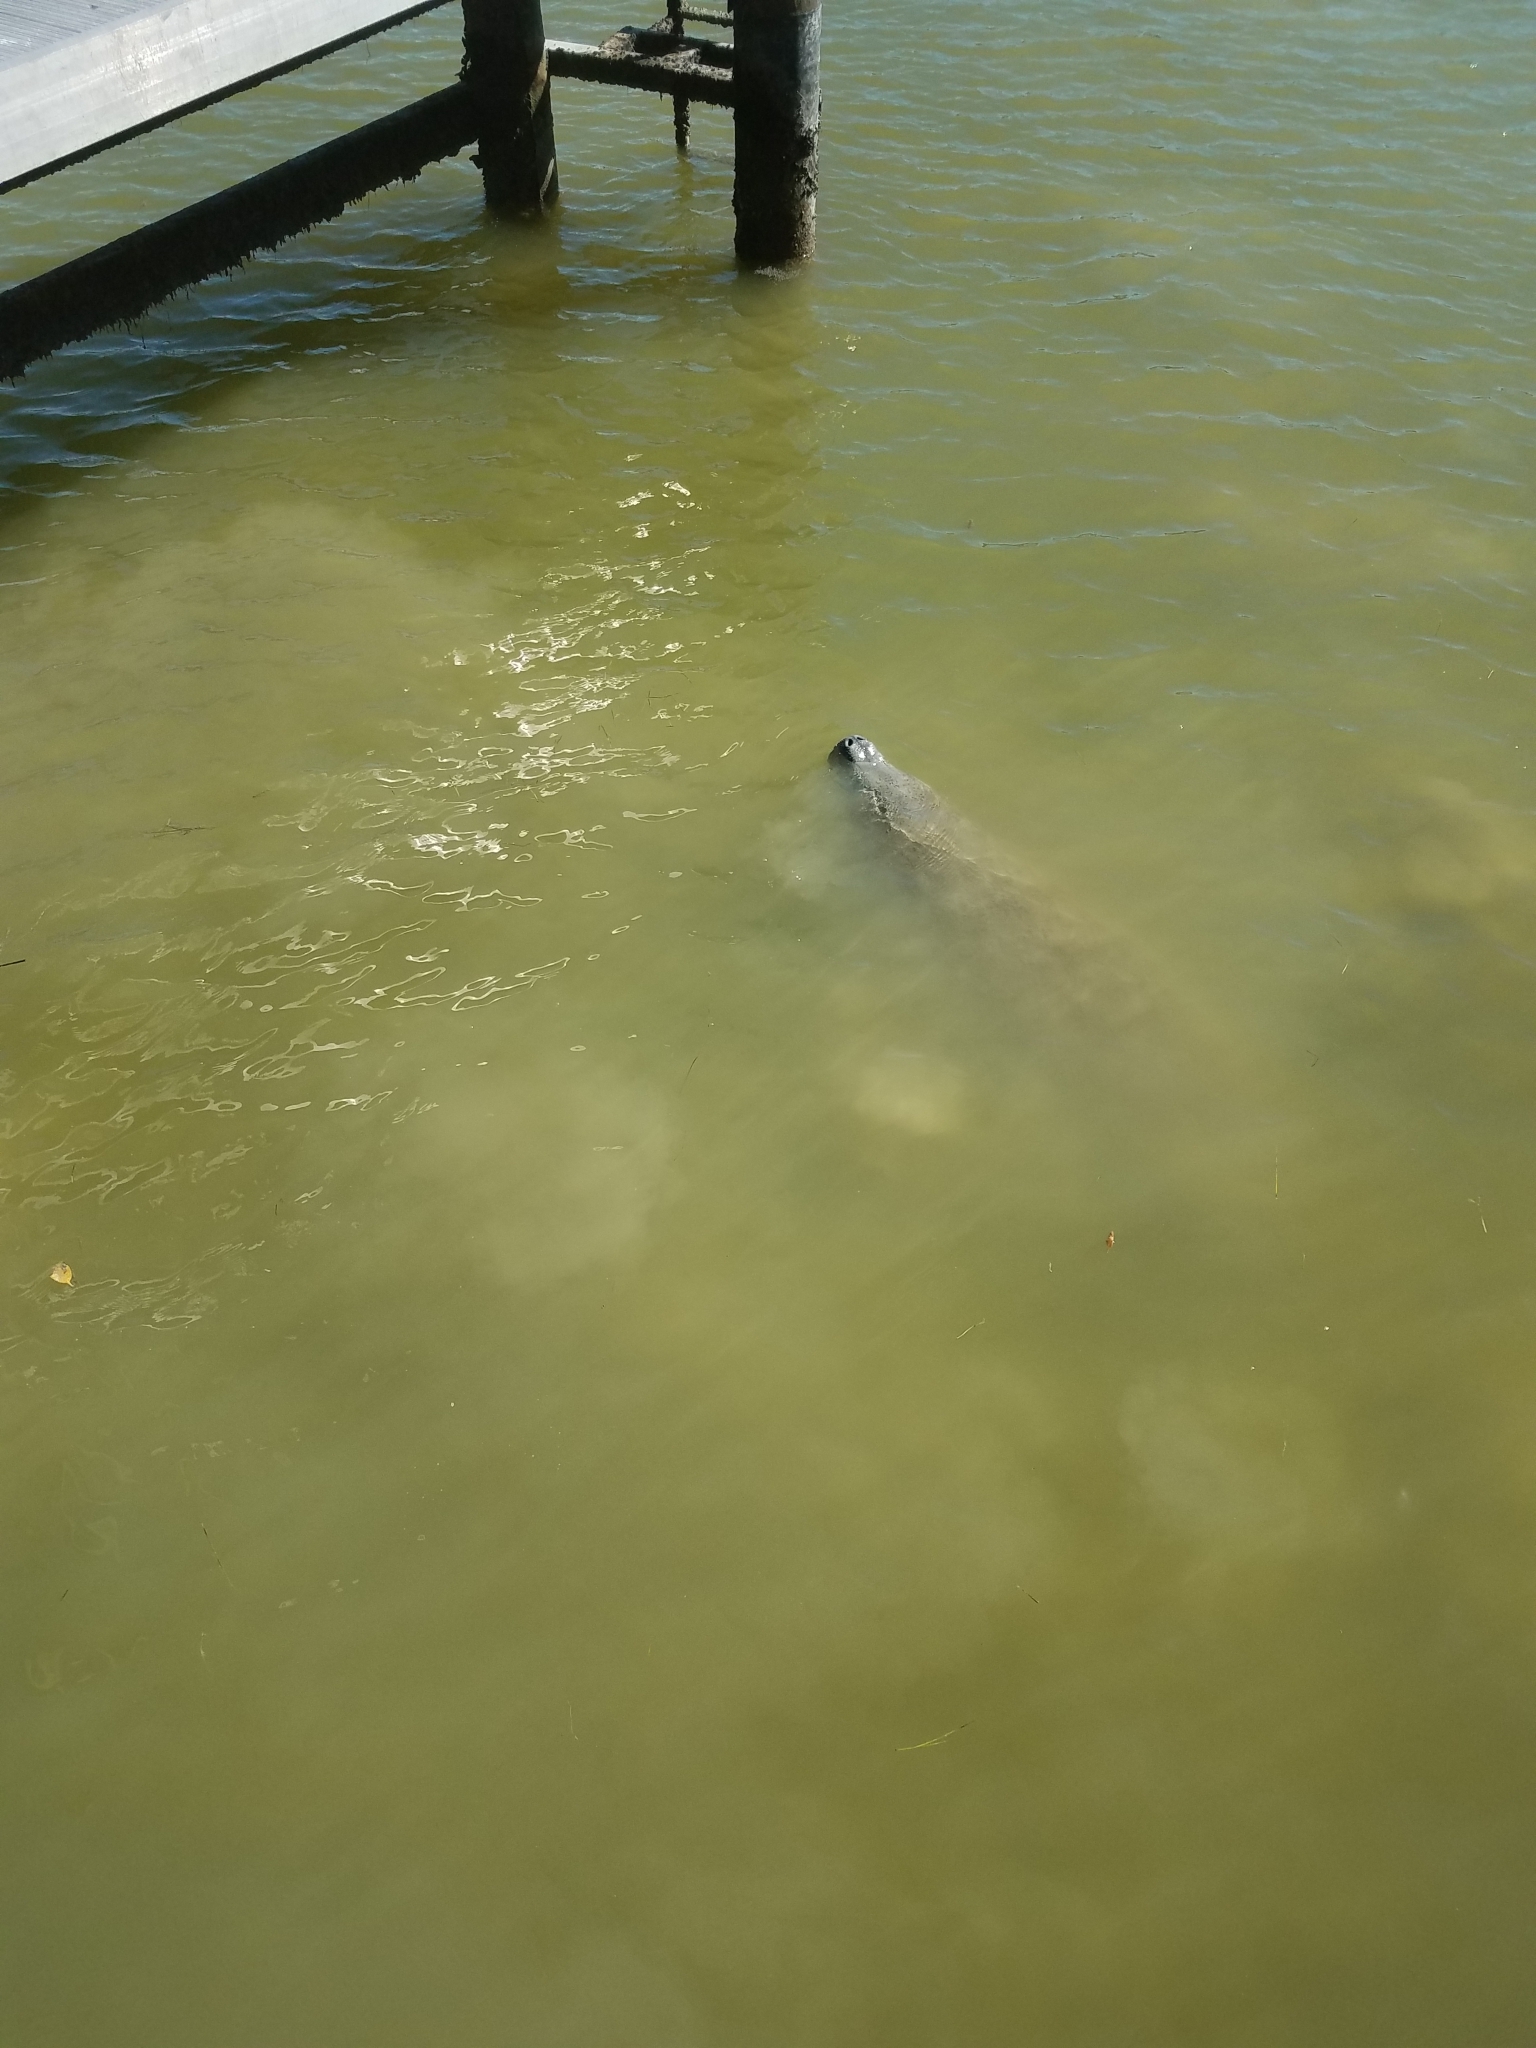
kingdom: Animalia
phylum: Chordata
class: Mammalia
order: Sirenia
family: Trichechidae
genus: Trichechus
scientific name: Trichechus manatus
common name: West indian manatee
